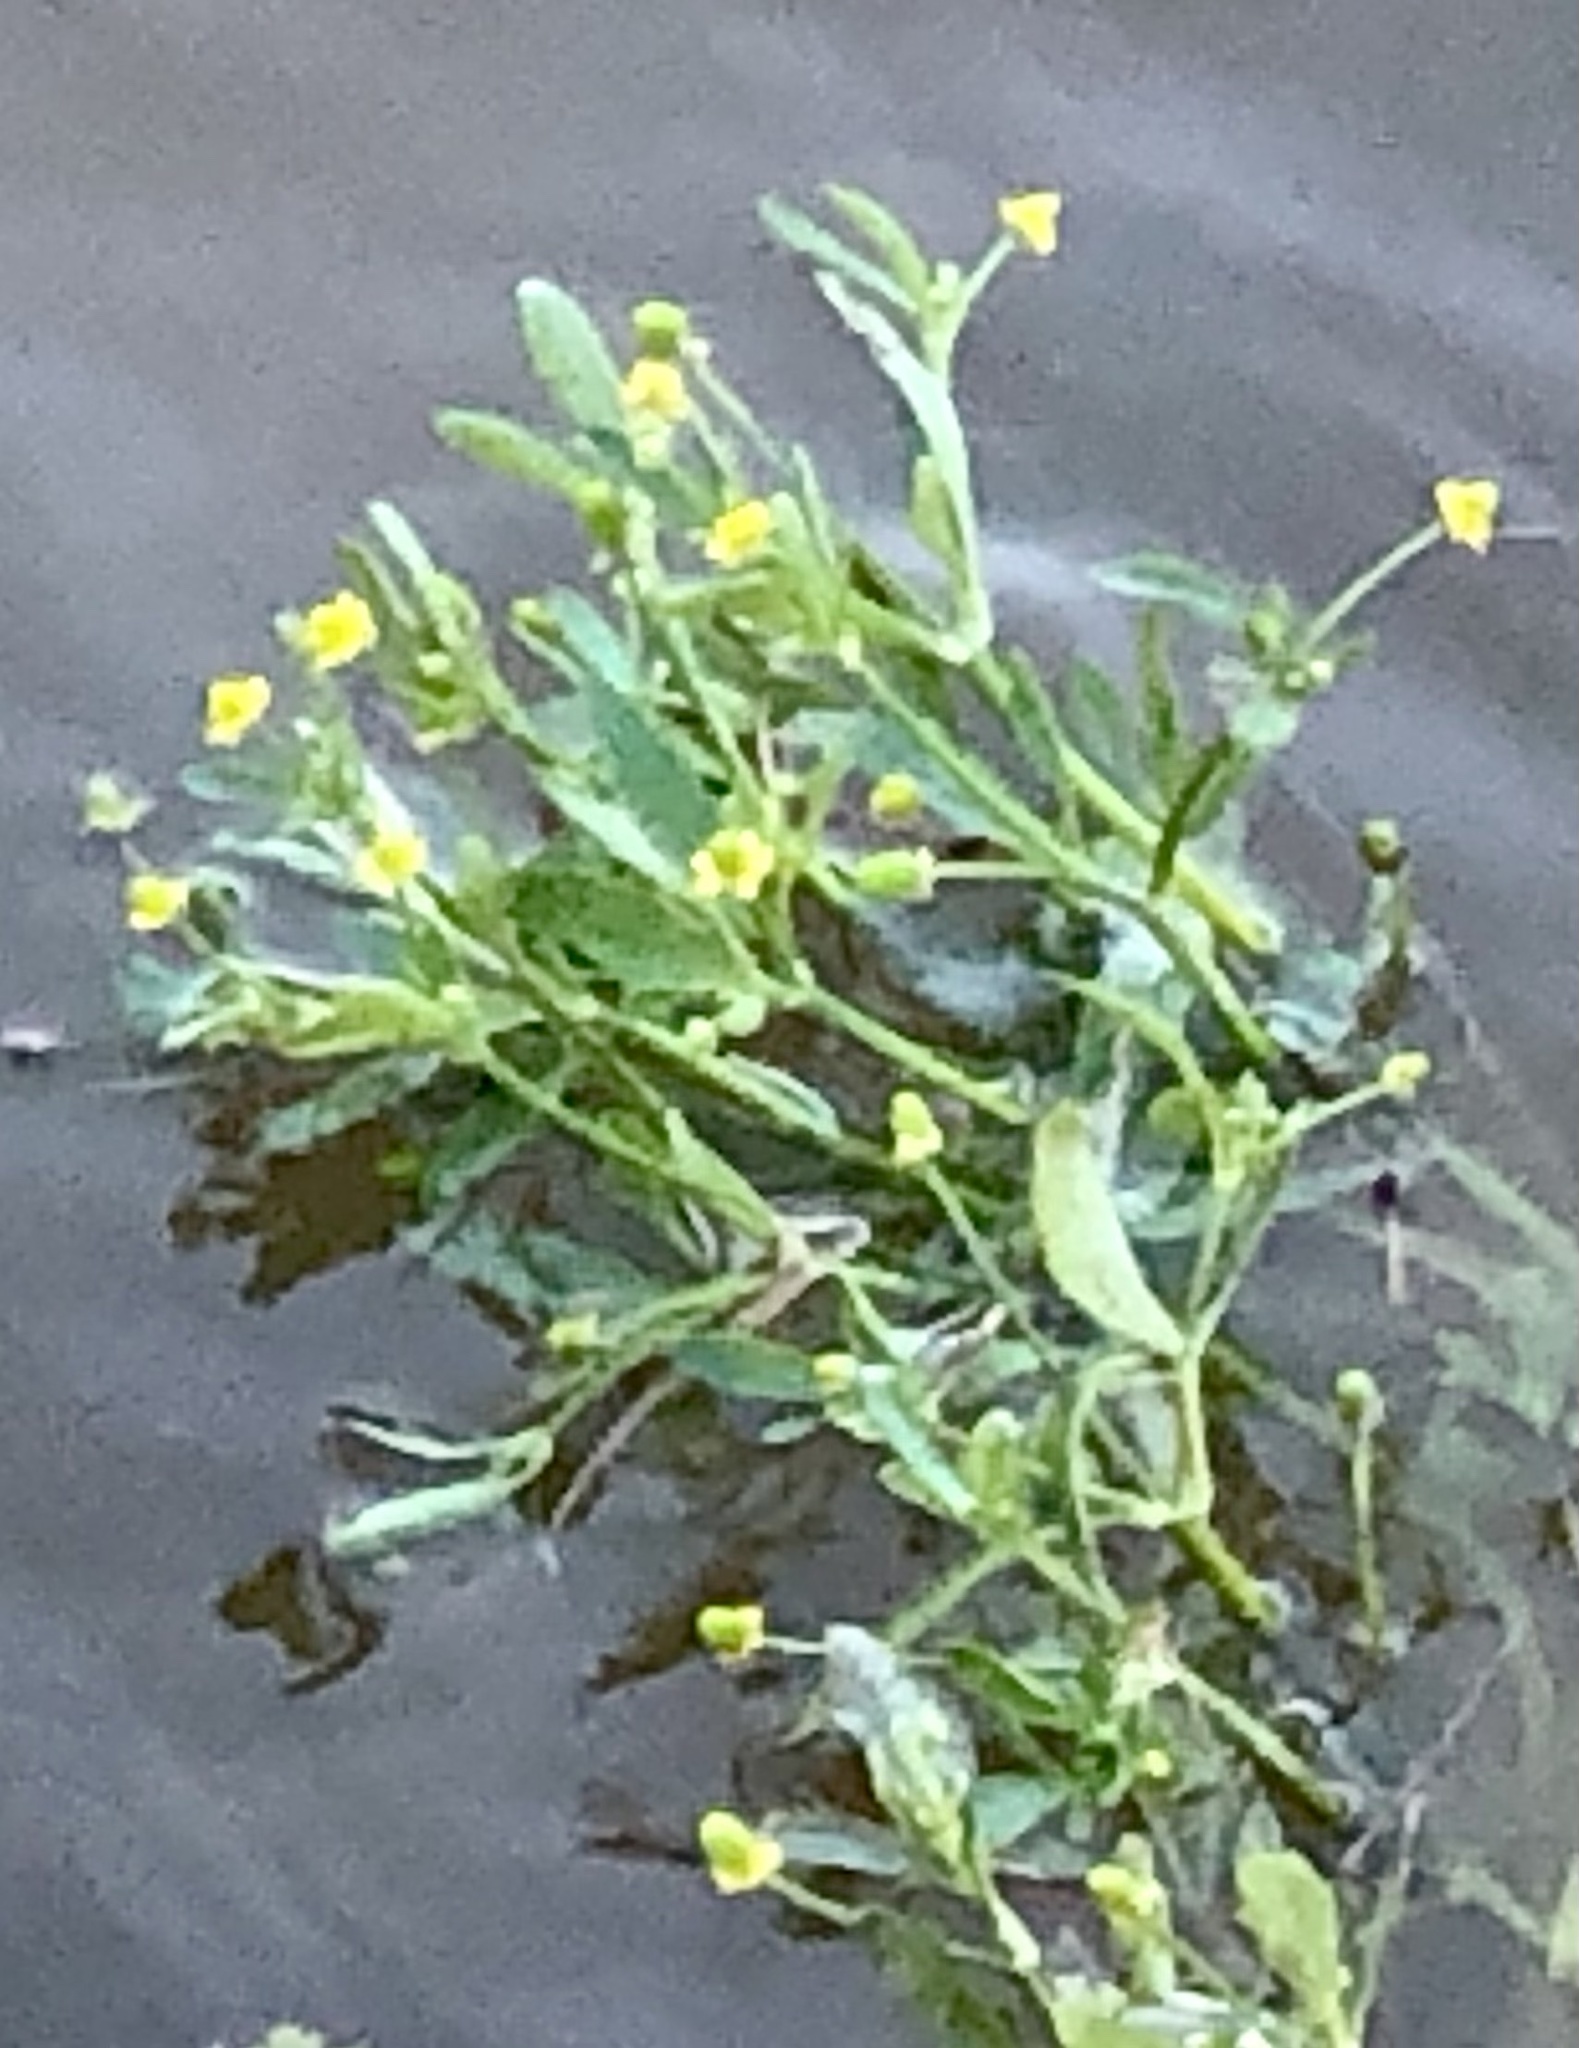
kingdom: Plantae
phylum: Tracheophyta
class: Magnoliopsida
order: Ranunculales
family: Ranunculaceae
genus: Ranunculus
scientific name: Ranunculus sceleratus
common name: Celery-leaved buttercup
